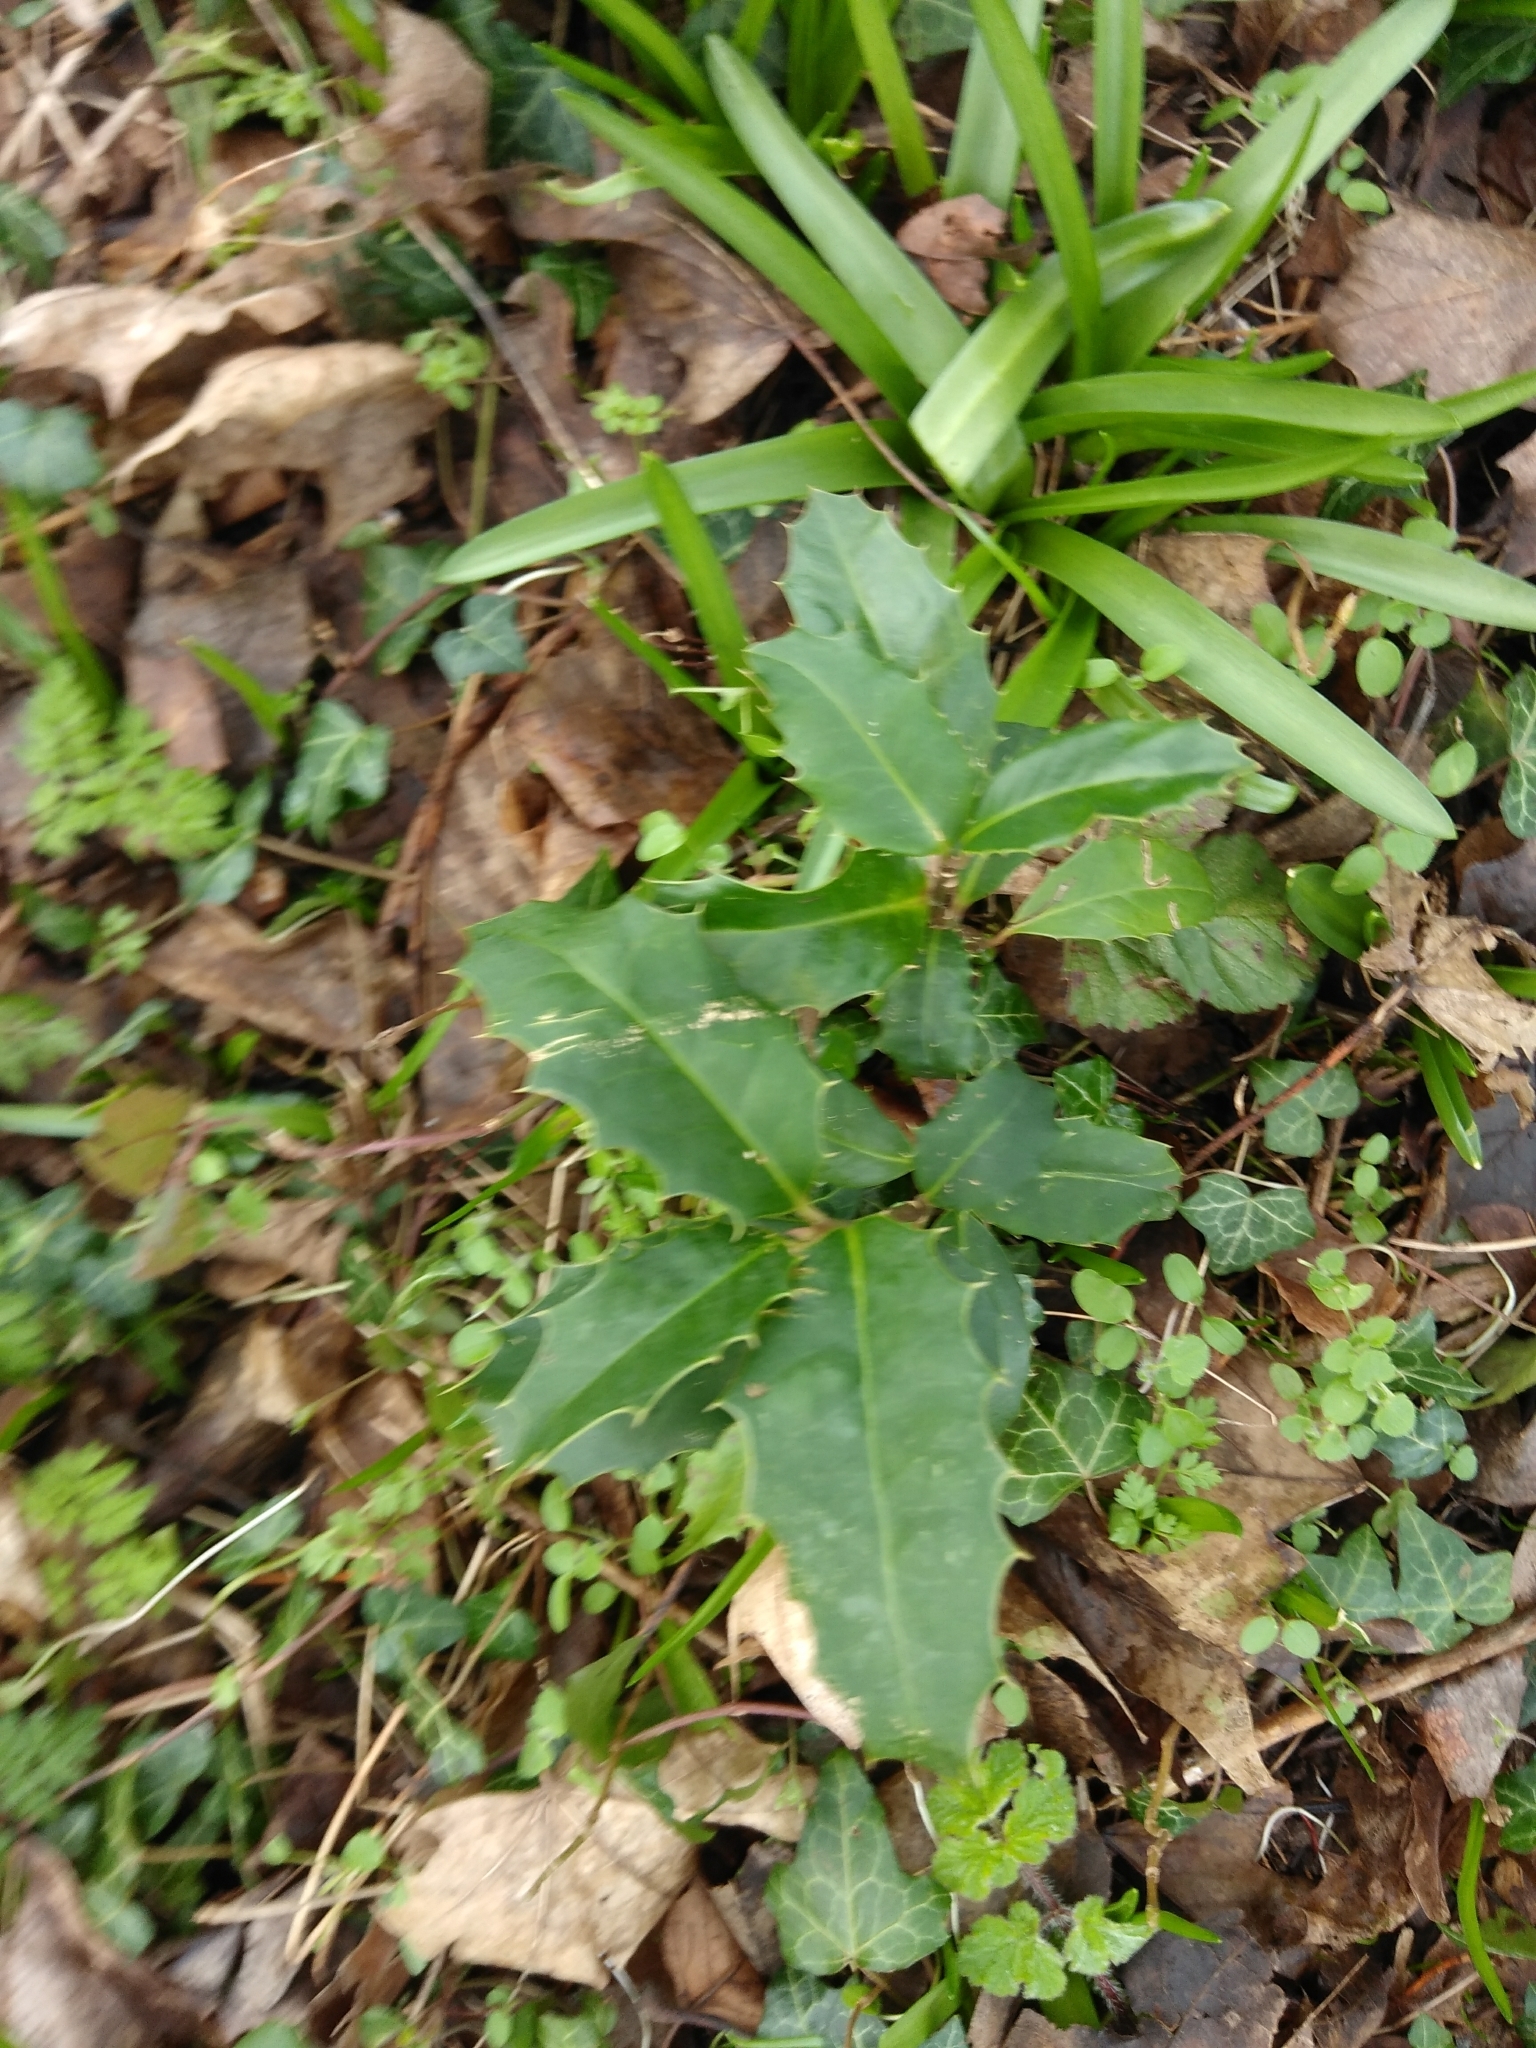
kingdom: Plantae
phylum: Tracheophyta
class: Magnoliopsida
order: Aquifoliales
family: Aquifoliaceae
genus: Ilex
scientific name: Ilex aquifolium
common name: English holly
